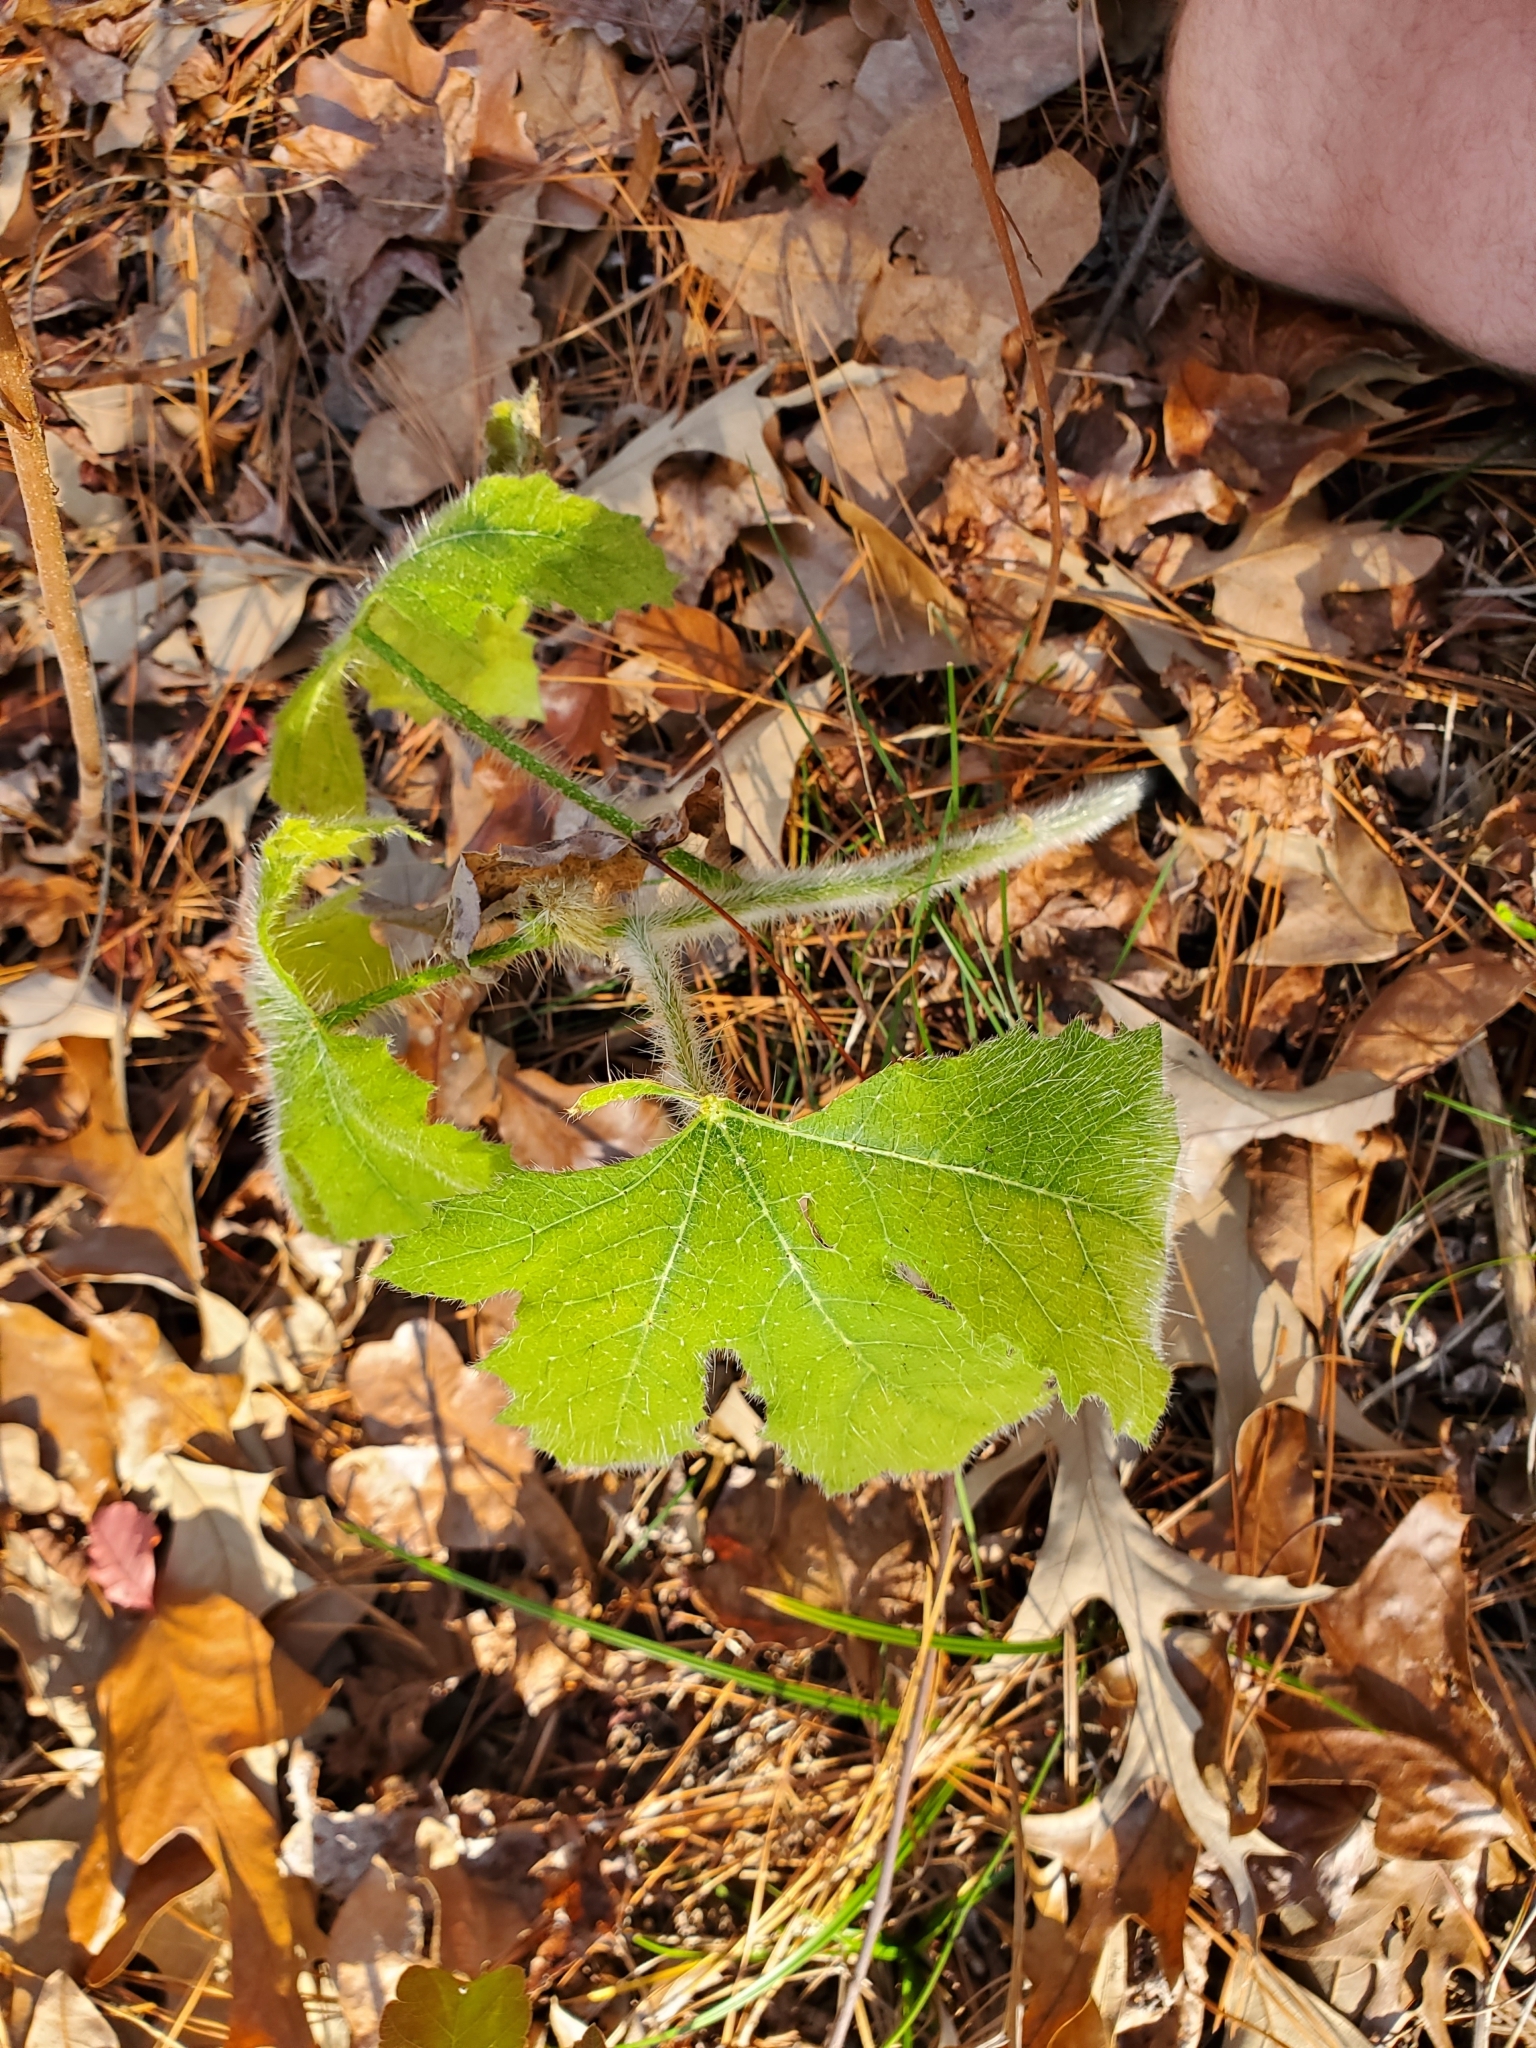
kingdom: Plantae
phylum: Tracheophyta
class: Magnoliopsida
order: Malpighiales
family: Euphorbiaceae
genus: Cnidoscolus
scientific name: Cnidoscolus texanus
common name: Texas bull-nettle
